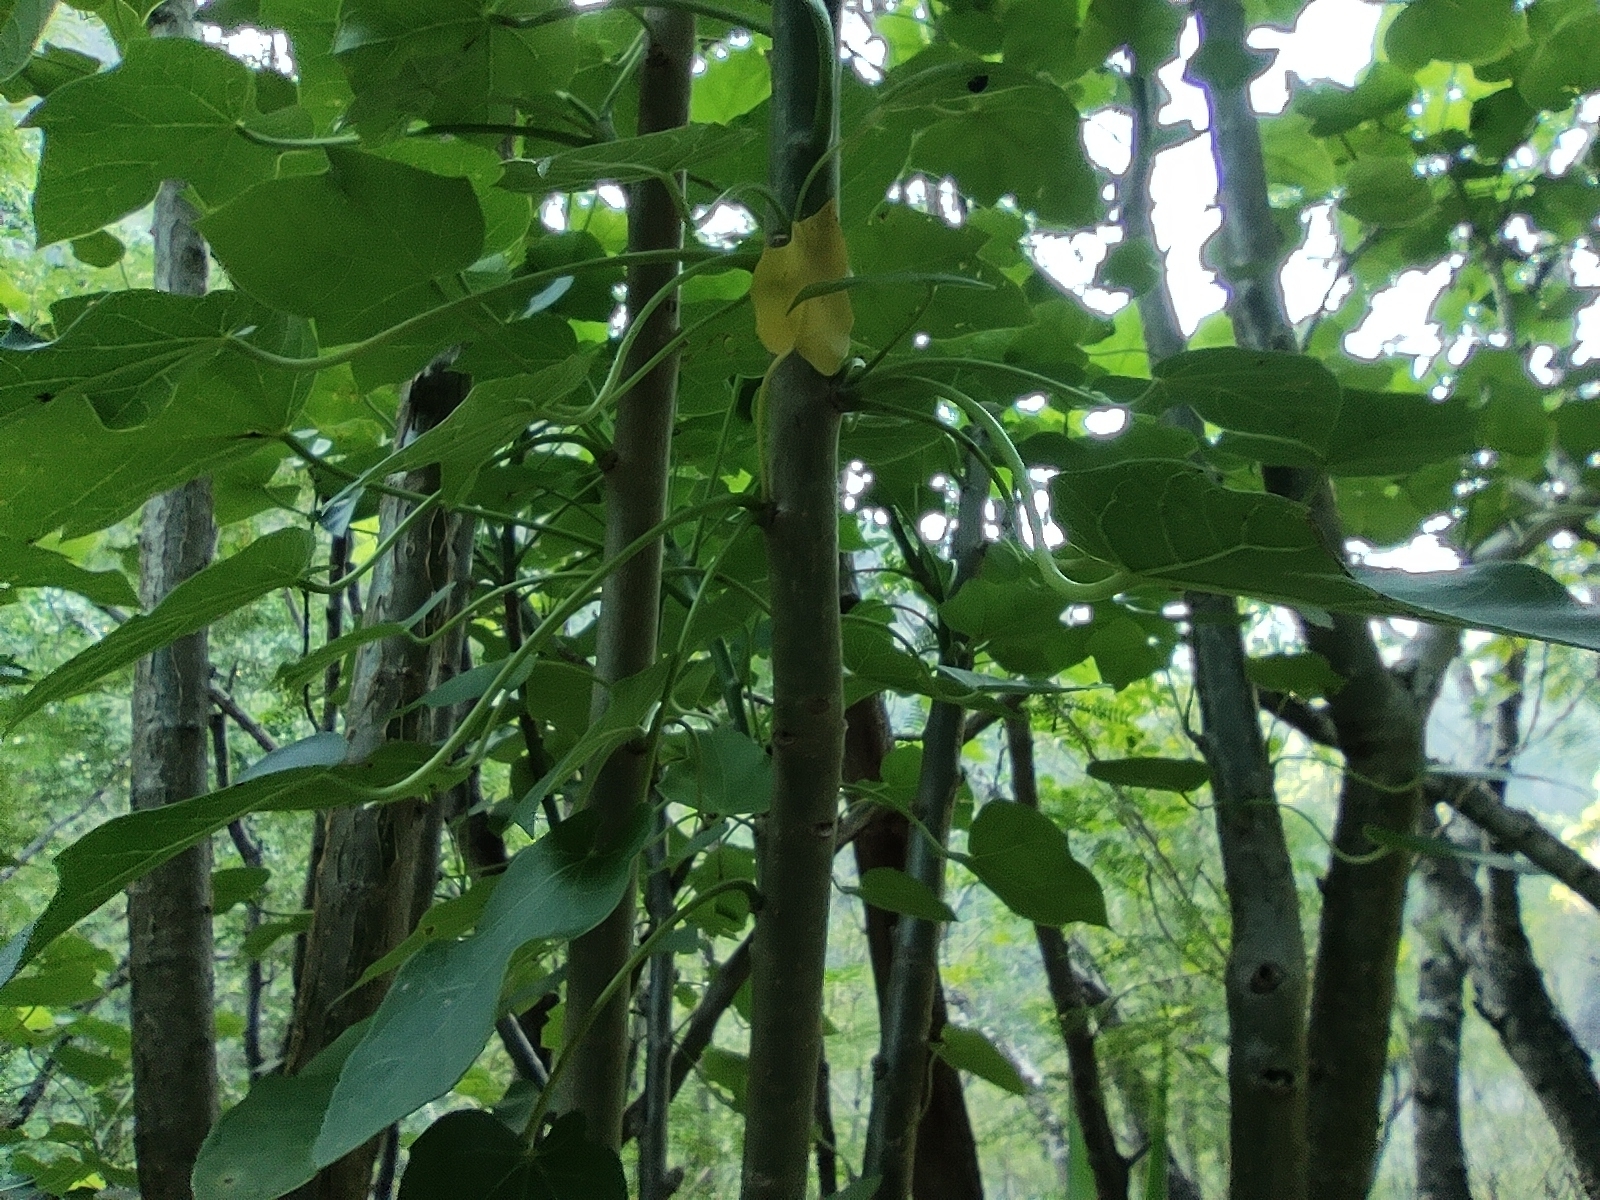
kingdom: Plantae
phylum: Tracheophyta
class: Magnoliopsida
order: Malpighiales
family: Euphorbiaceae
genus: Jatropha
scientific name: Jatropha curcas
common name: Barbados nut
